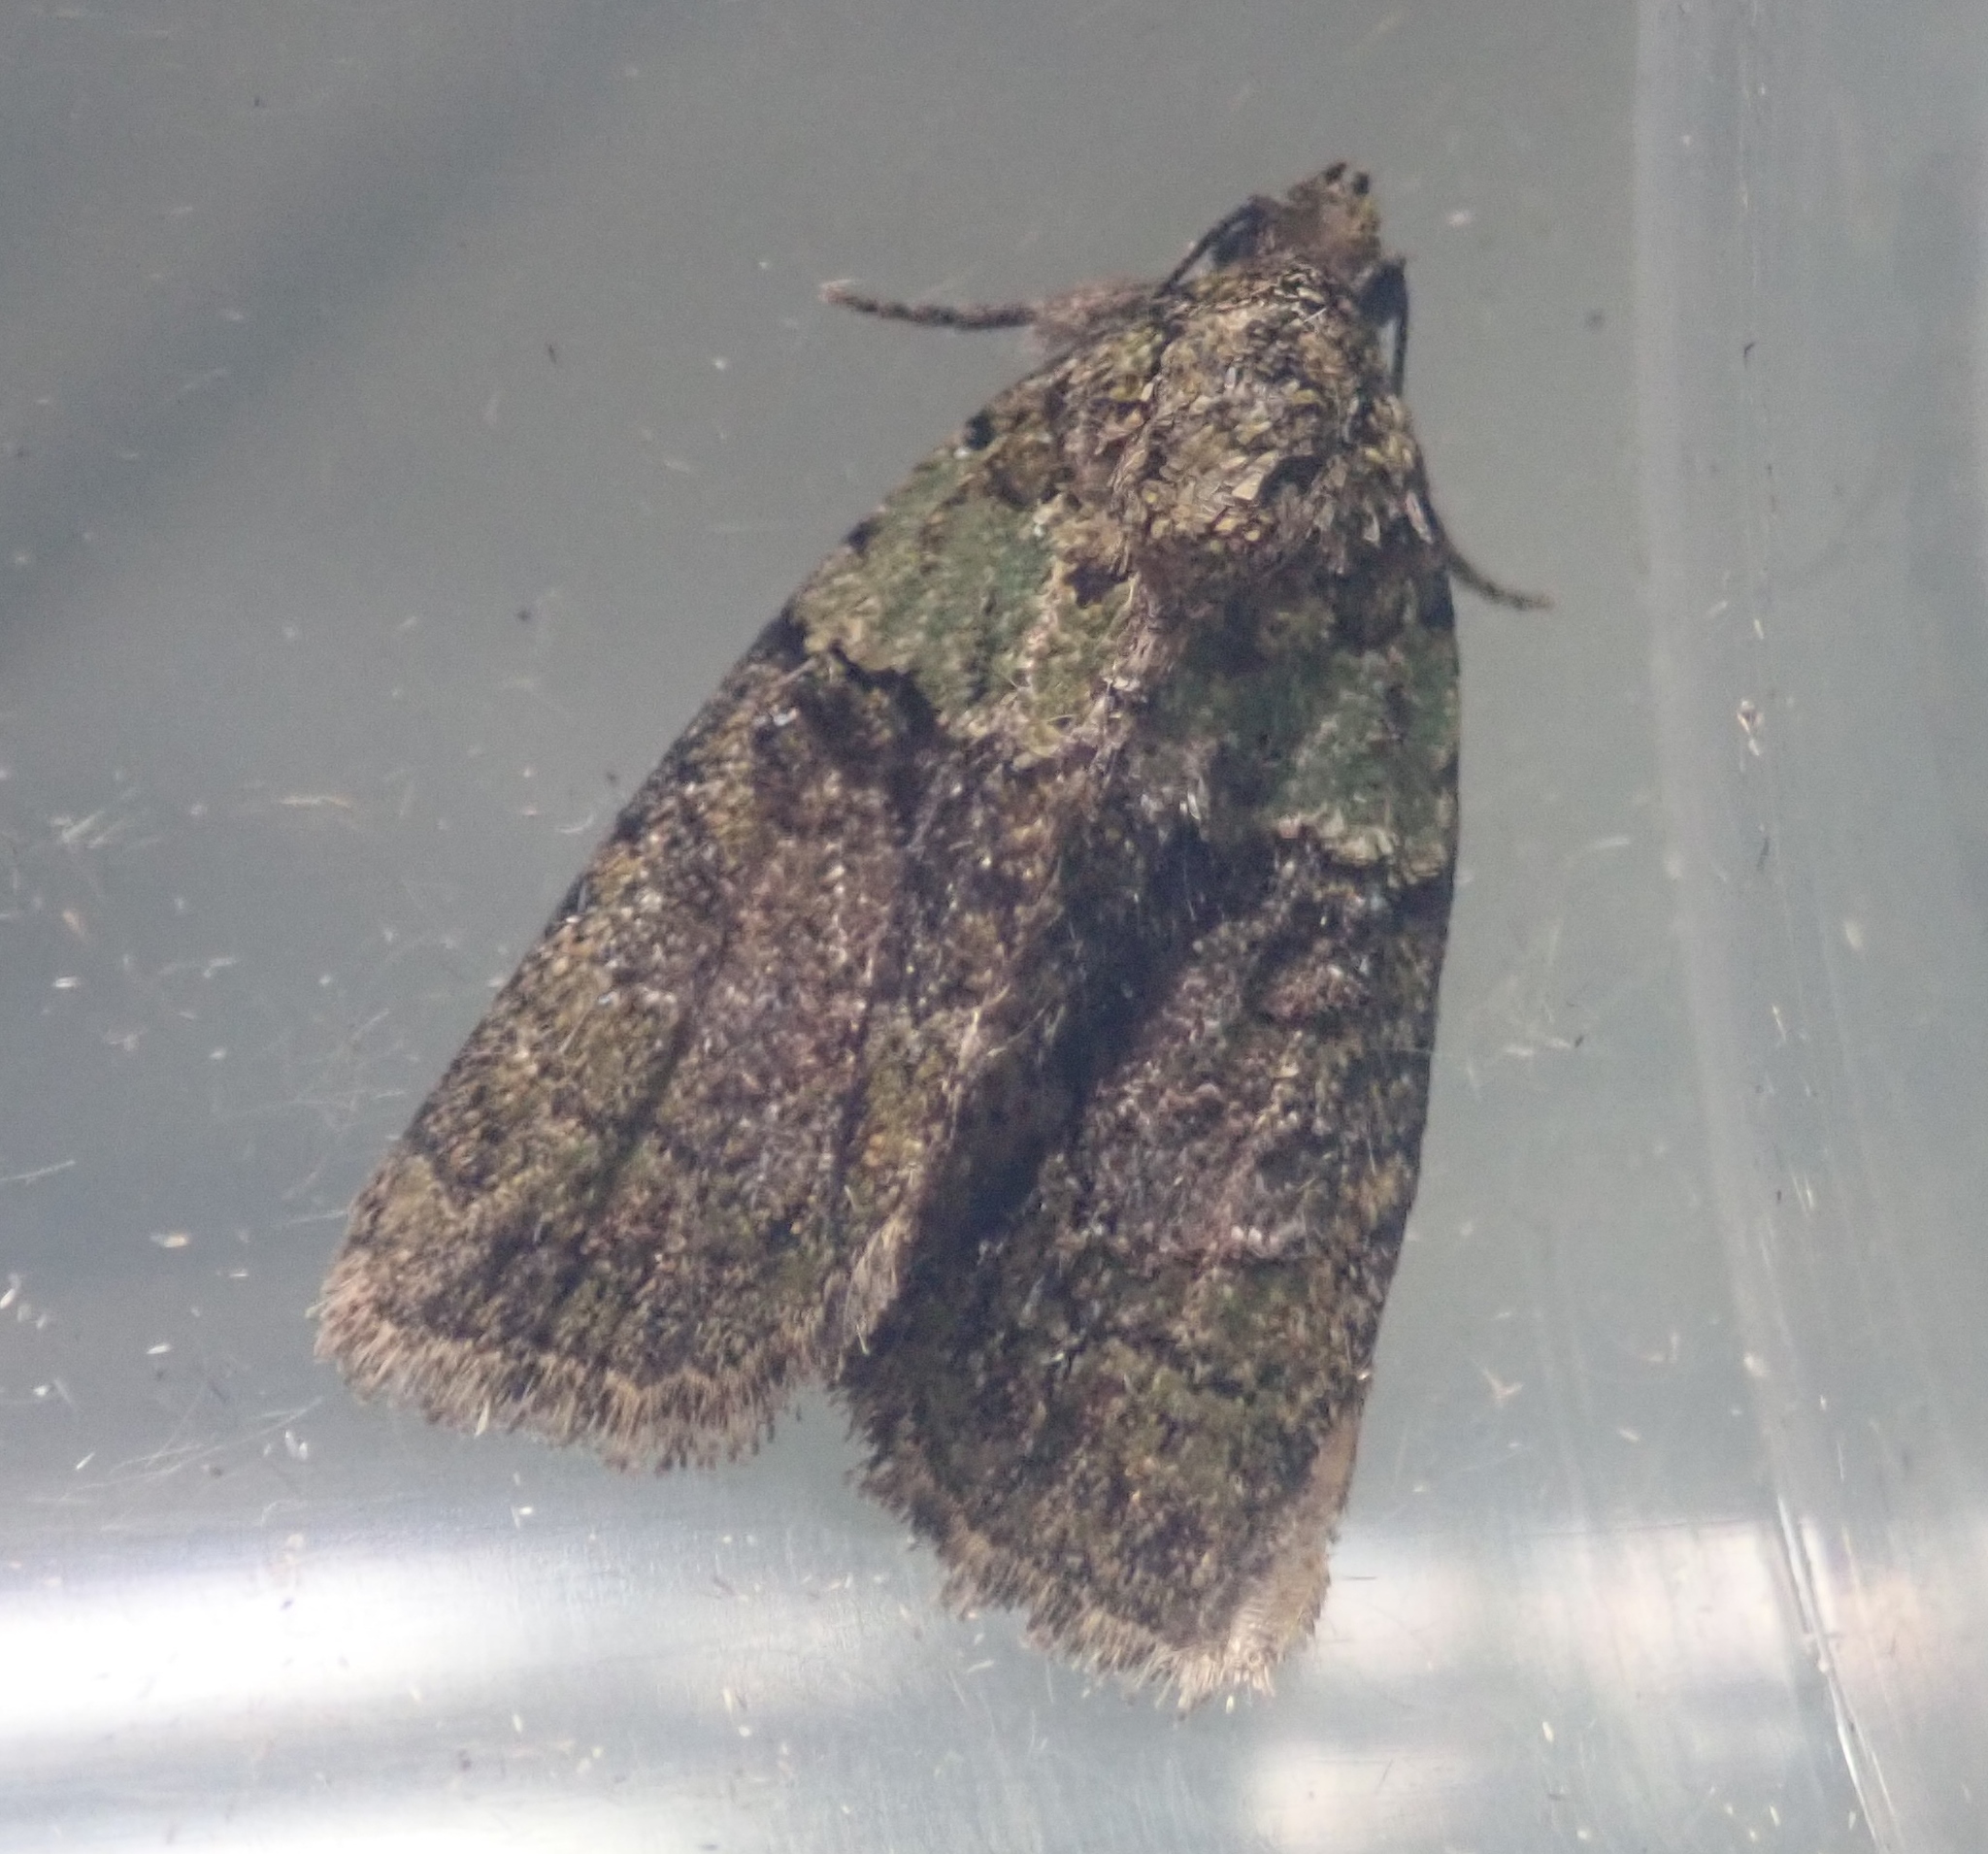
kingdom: Animalia
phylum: Arthropoda
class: Insecta
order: Lepidoptera
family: Noctuidae
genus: Cryphia
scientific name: Cryphia algae
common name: Tree-lichen beauty
